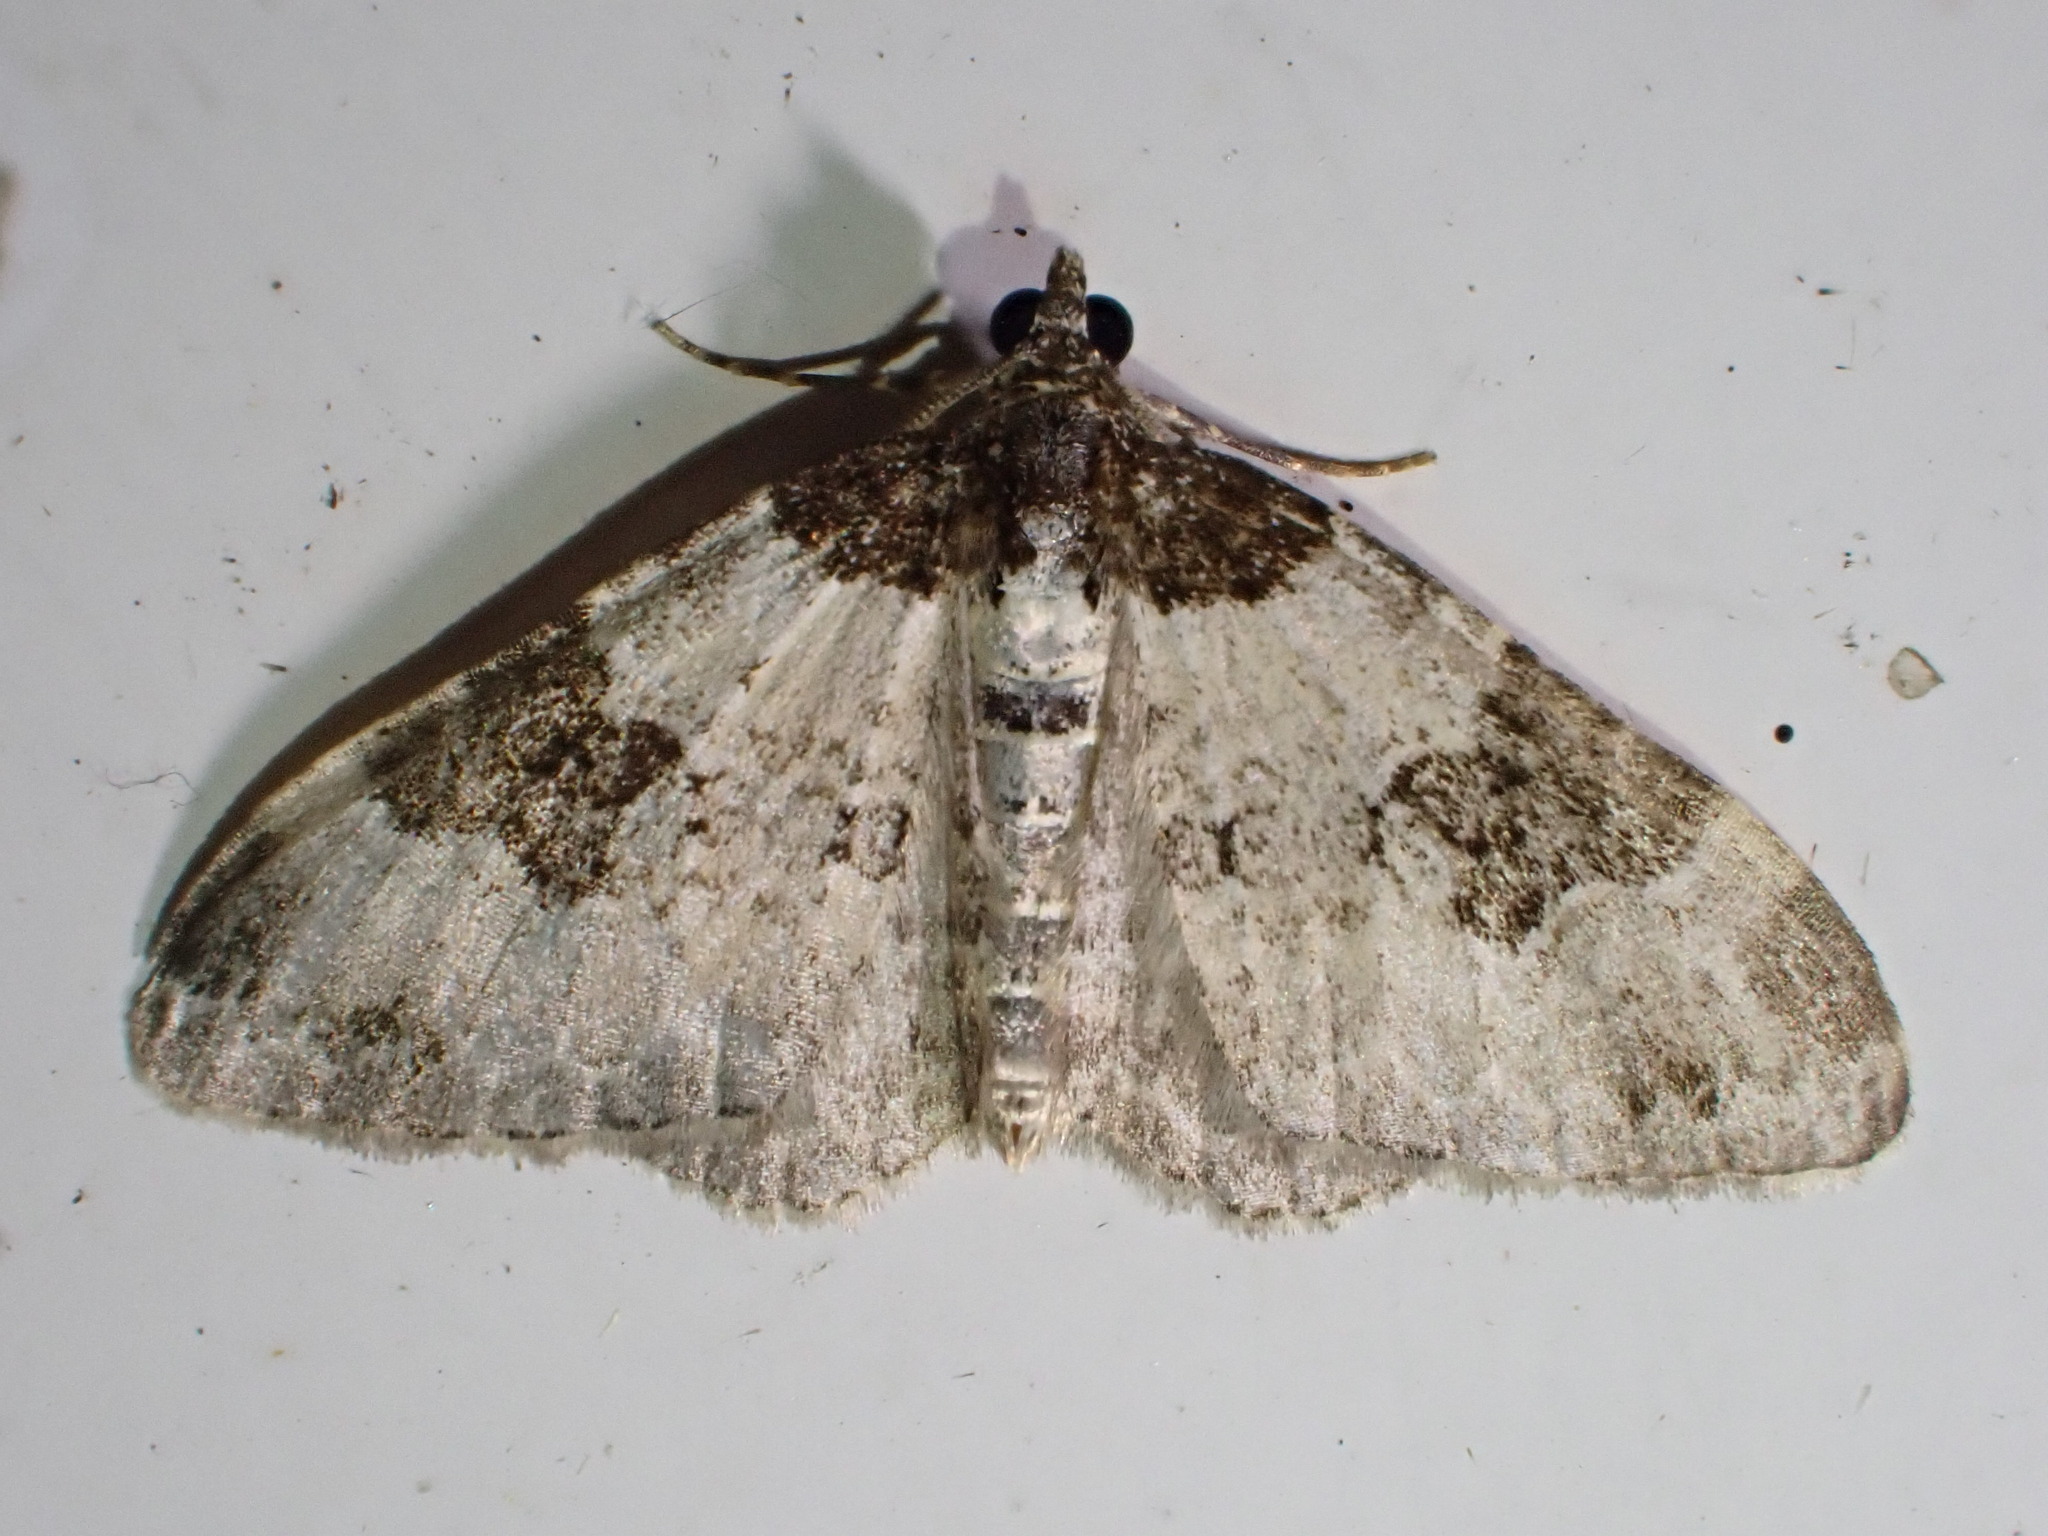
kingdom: Animalia
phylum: Arthropoda
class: Insecta
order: Lepidoptera
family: Geometridae
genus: Xanthorhoe
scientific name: Xanthorhoe fluctuata
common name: Garden carpet
